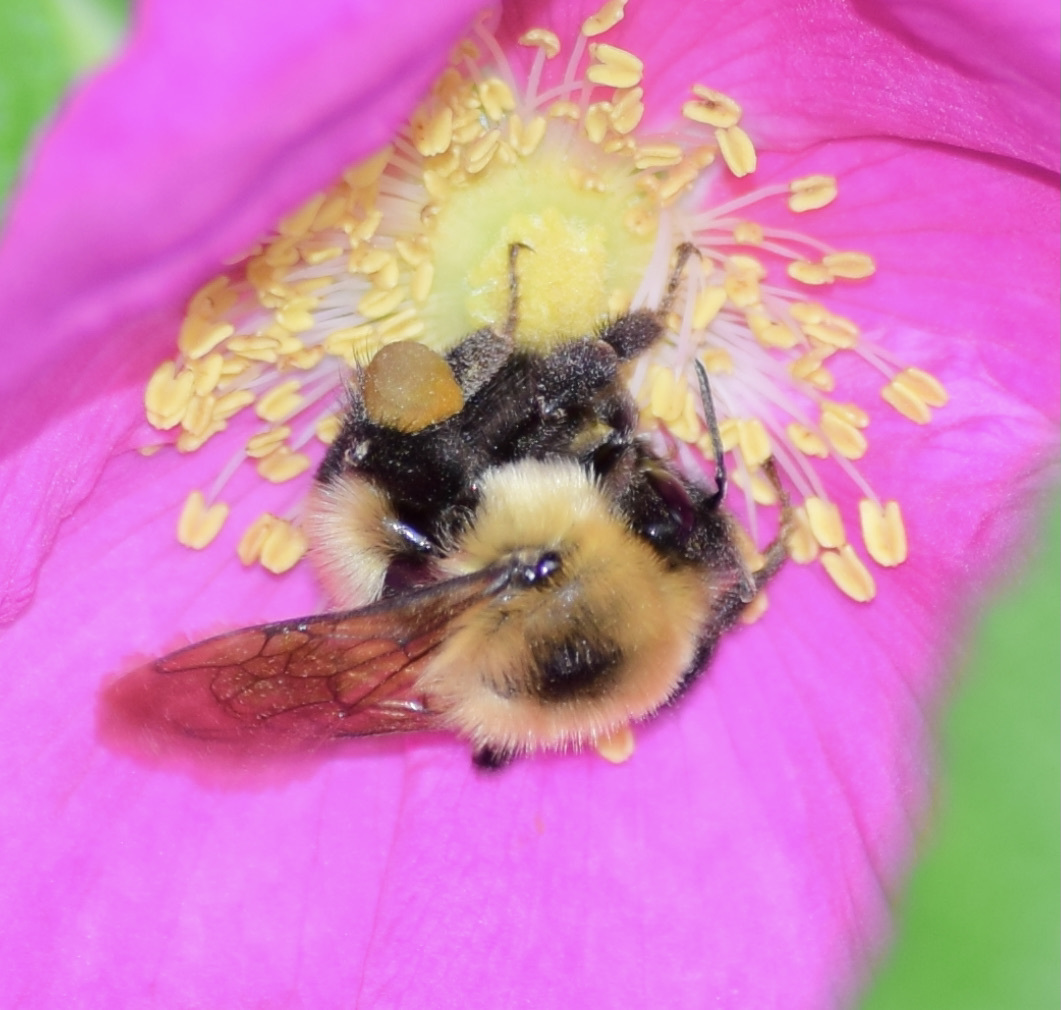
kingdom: Animalia
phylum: Arthropoda
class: Insecta
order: Hymenoptera
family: Apidae
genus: Bombus
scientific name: Bombus bimaculatus
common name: Two-spotted bumble bee
